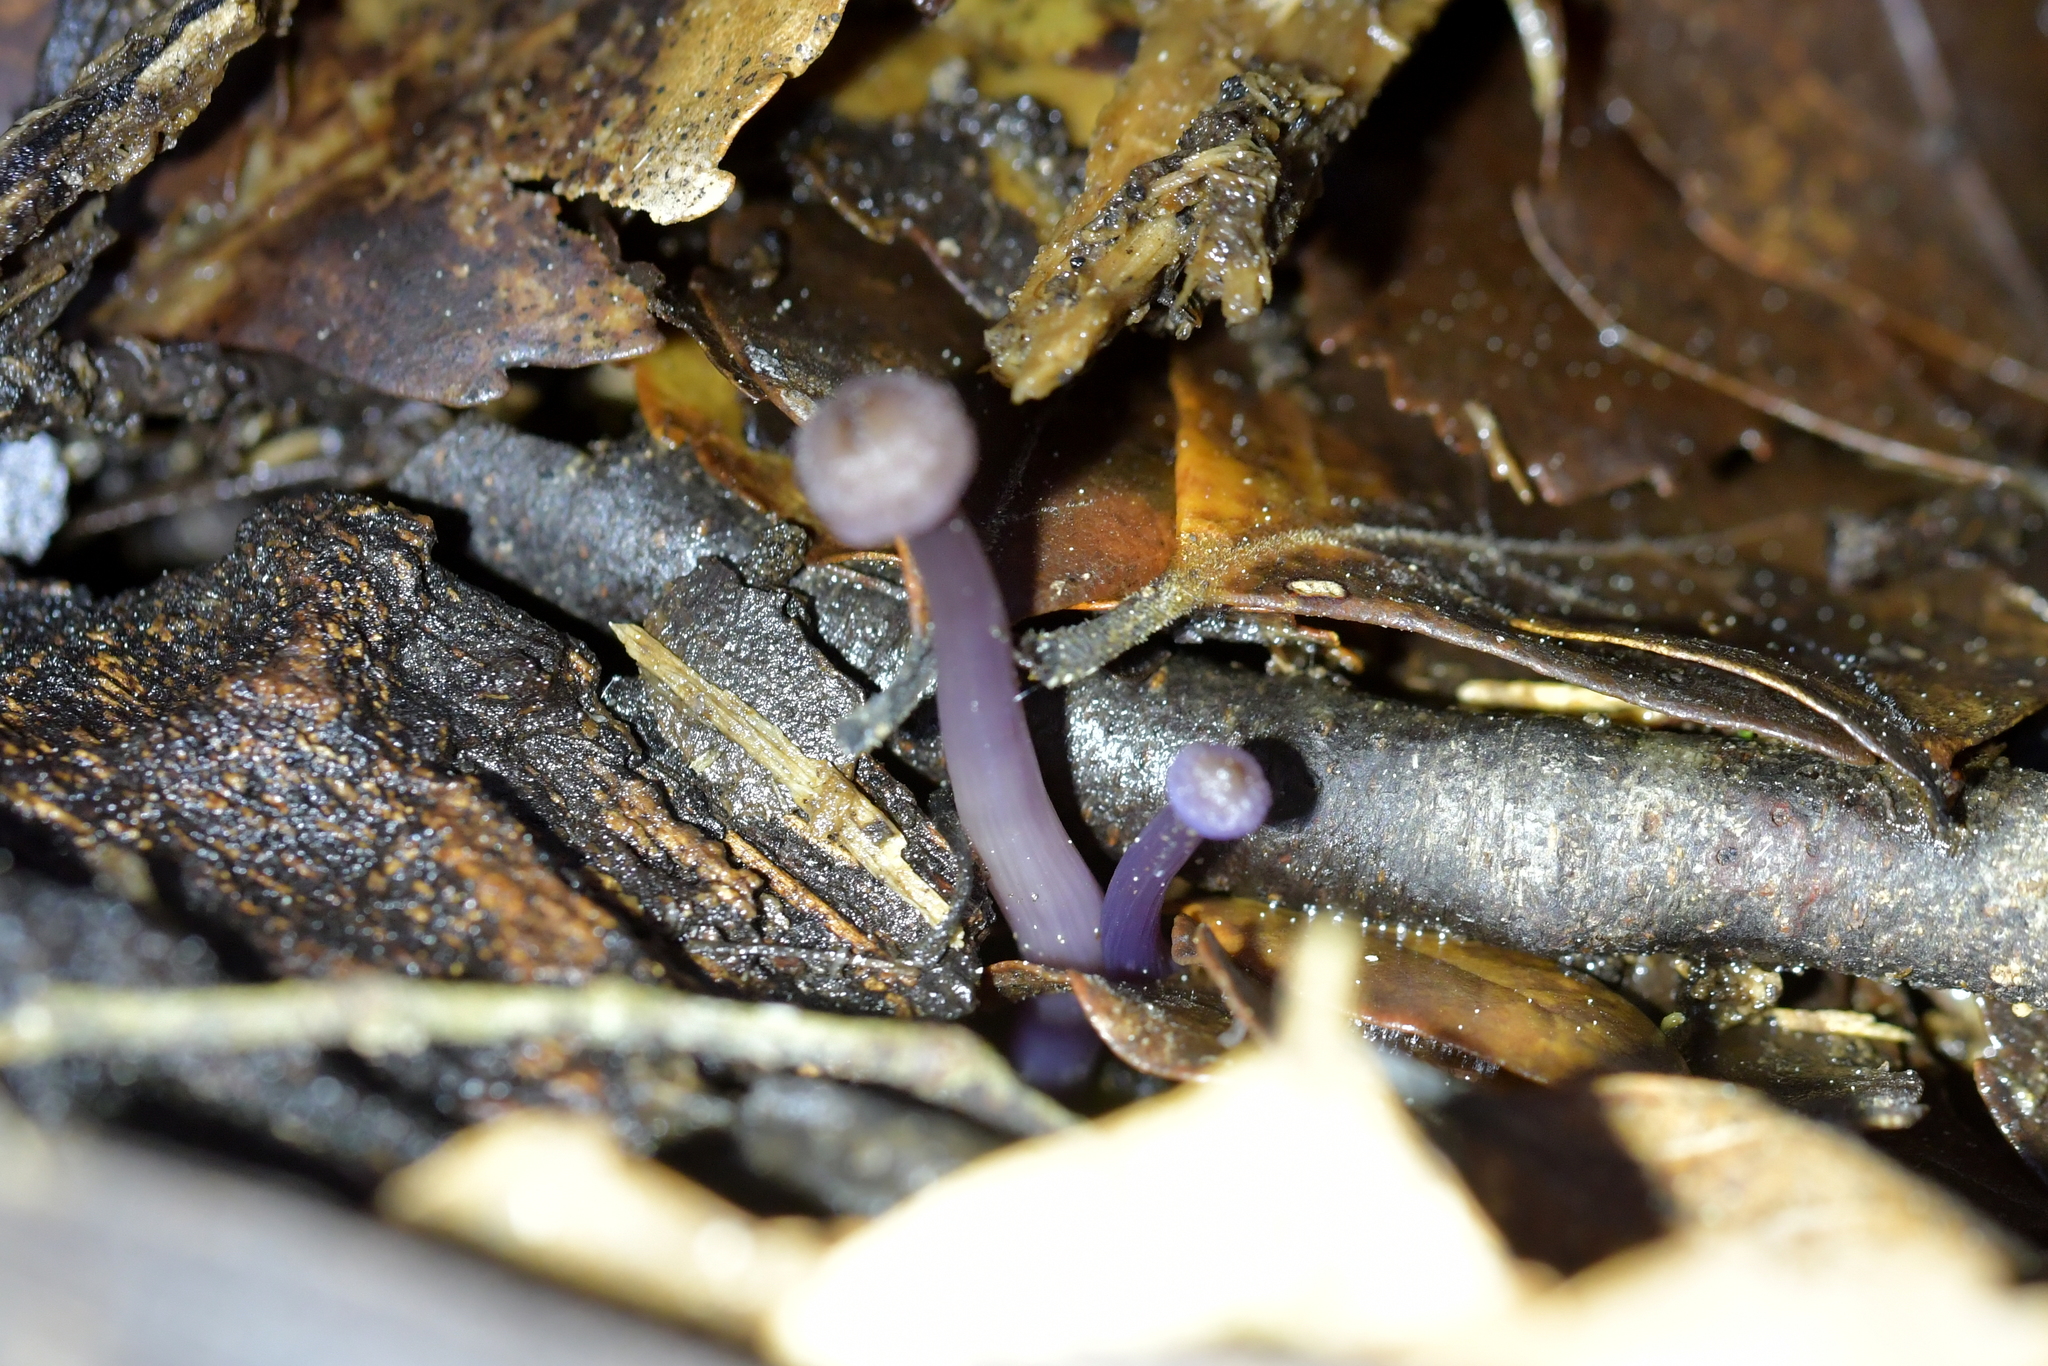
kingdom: Fungi
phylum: Basidiomycota
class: Agaricomycetes
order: Agaricales
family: Hydnangiaceae
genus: Laccaria
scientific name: Laccaria masoniae
